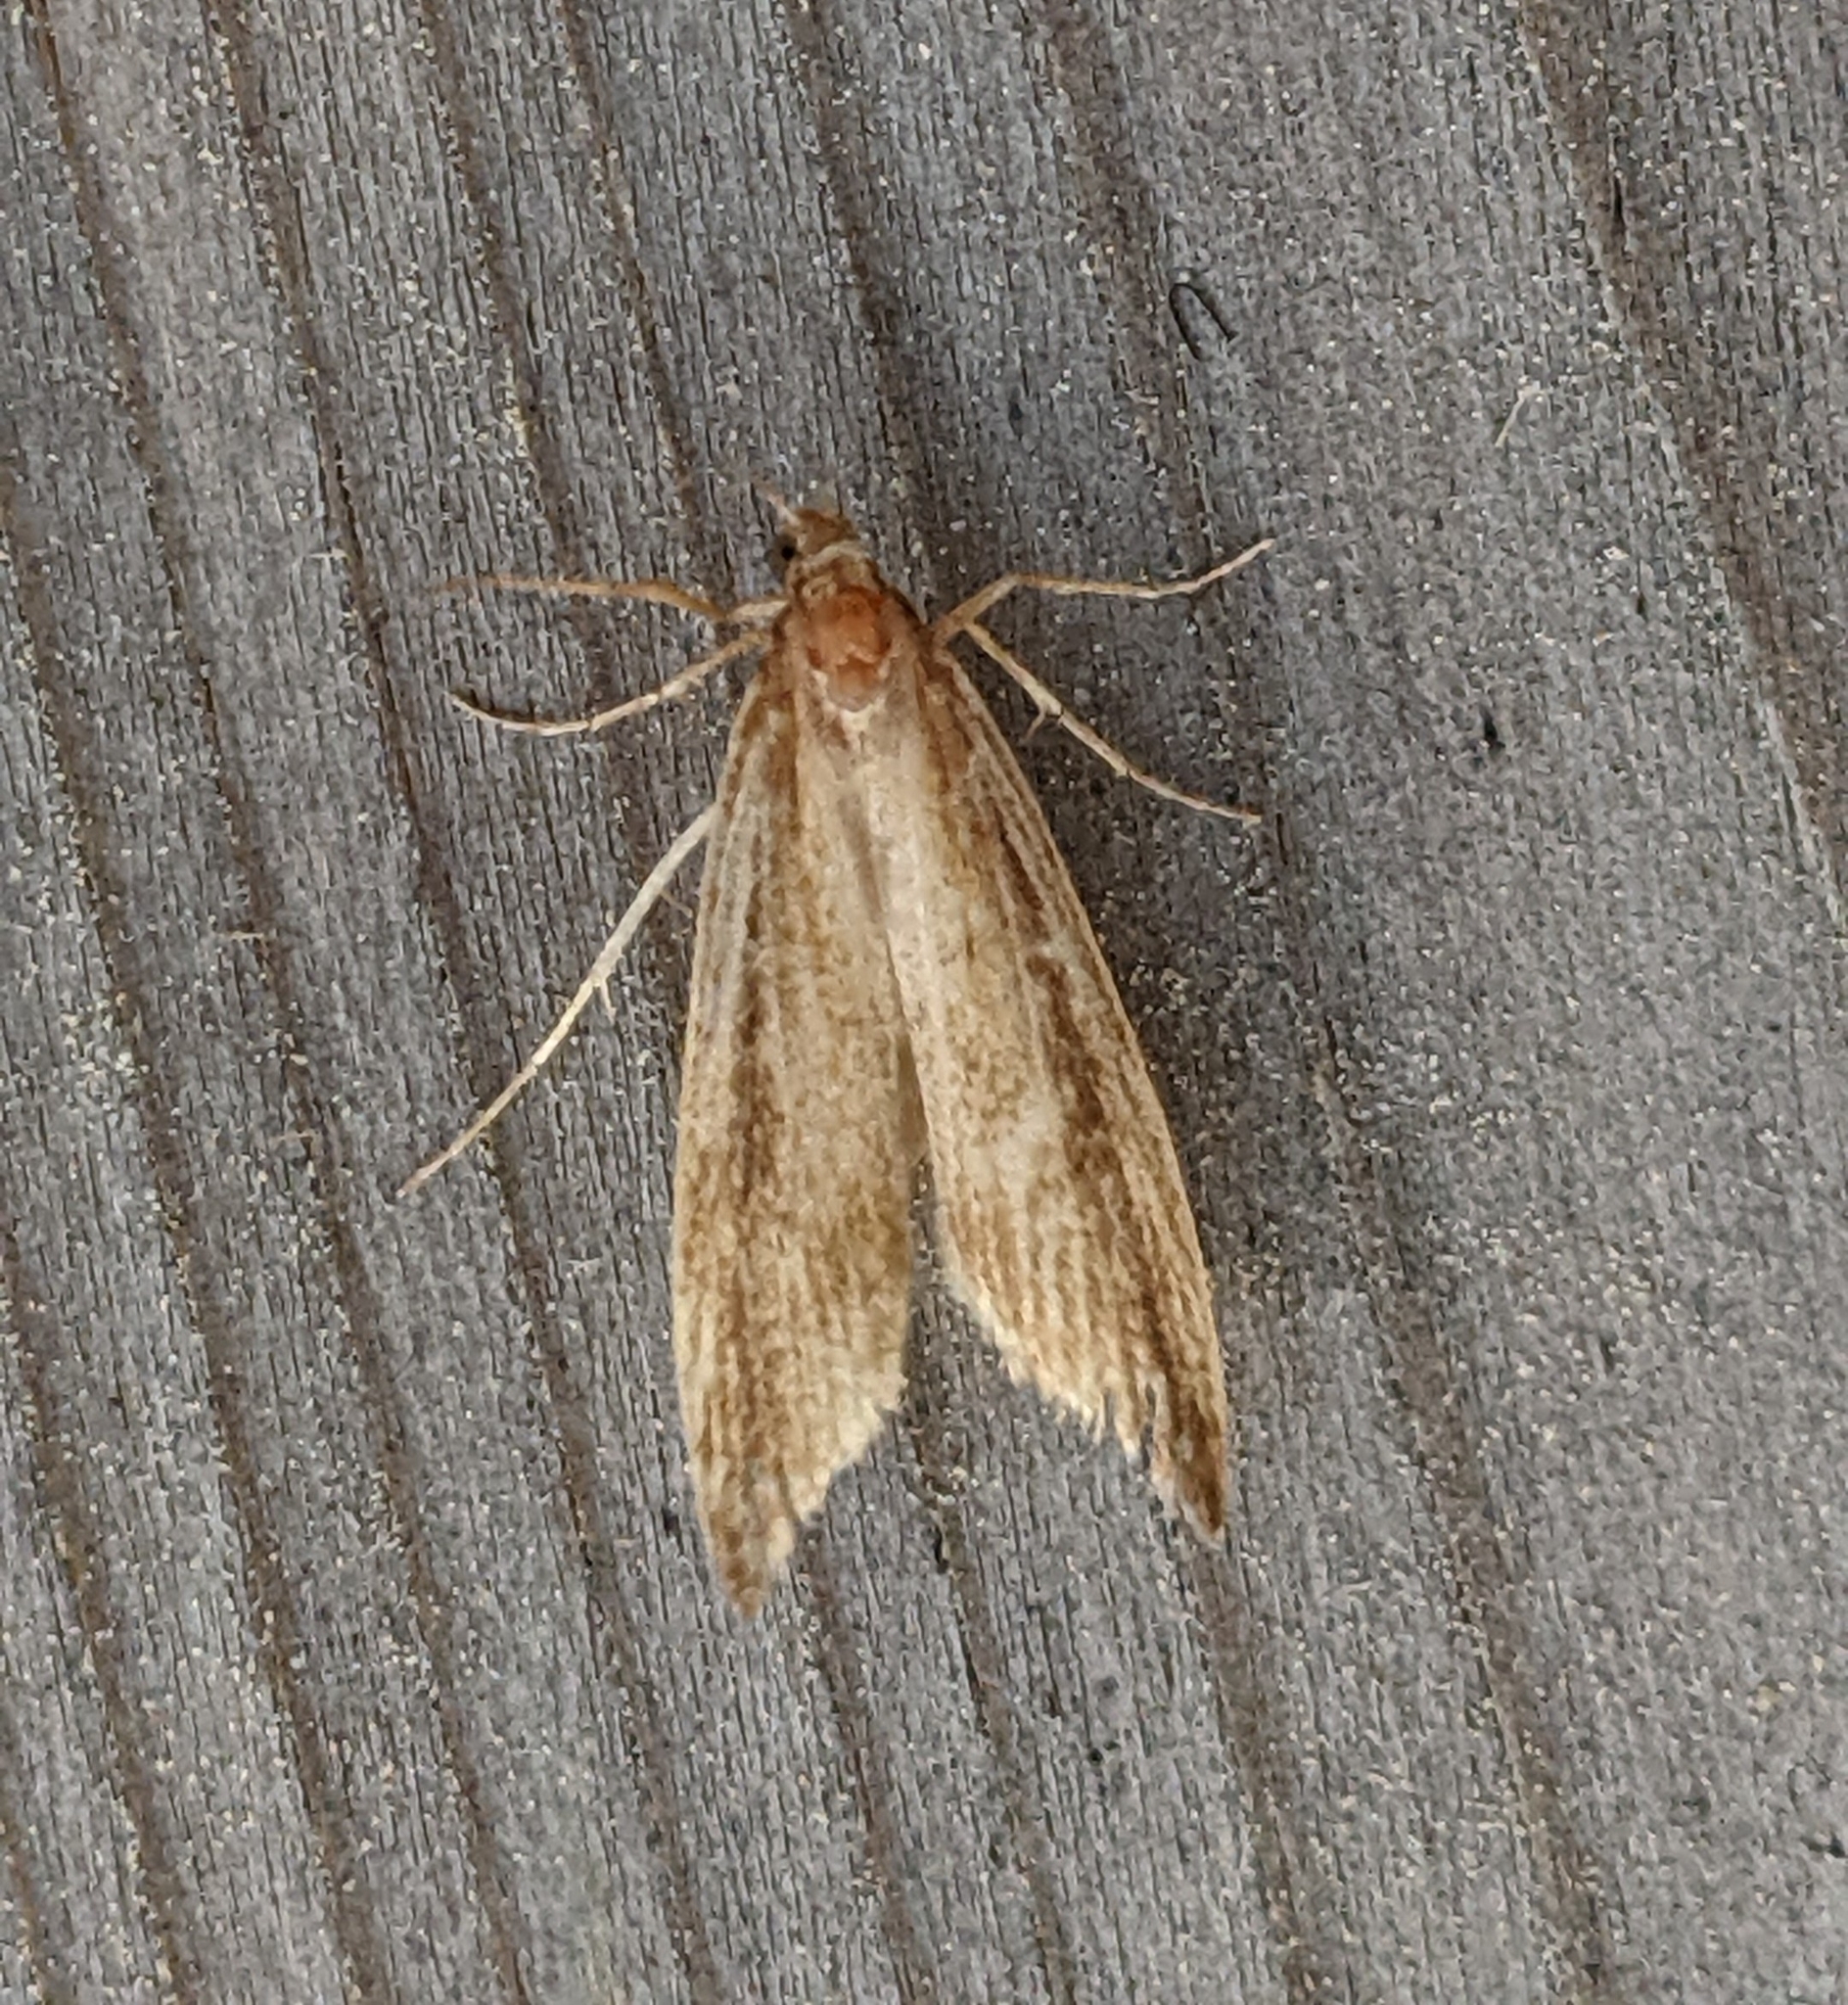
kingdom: Animalia
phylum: Arthropoda
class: Insecta
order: Lepidoptera
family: Crambidae
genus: Donacaula
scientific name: Donacaula melinellus
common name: Delightful donacaula moth
